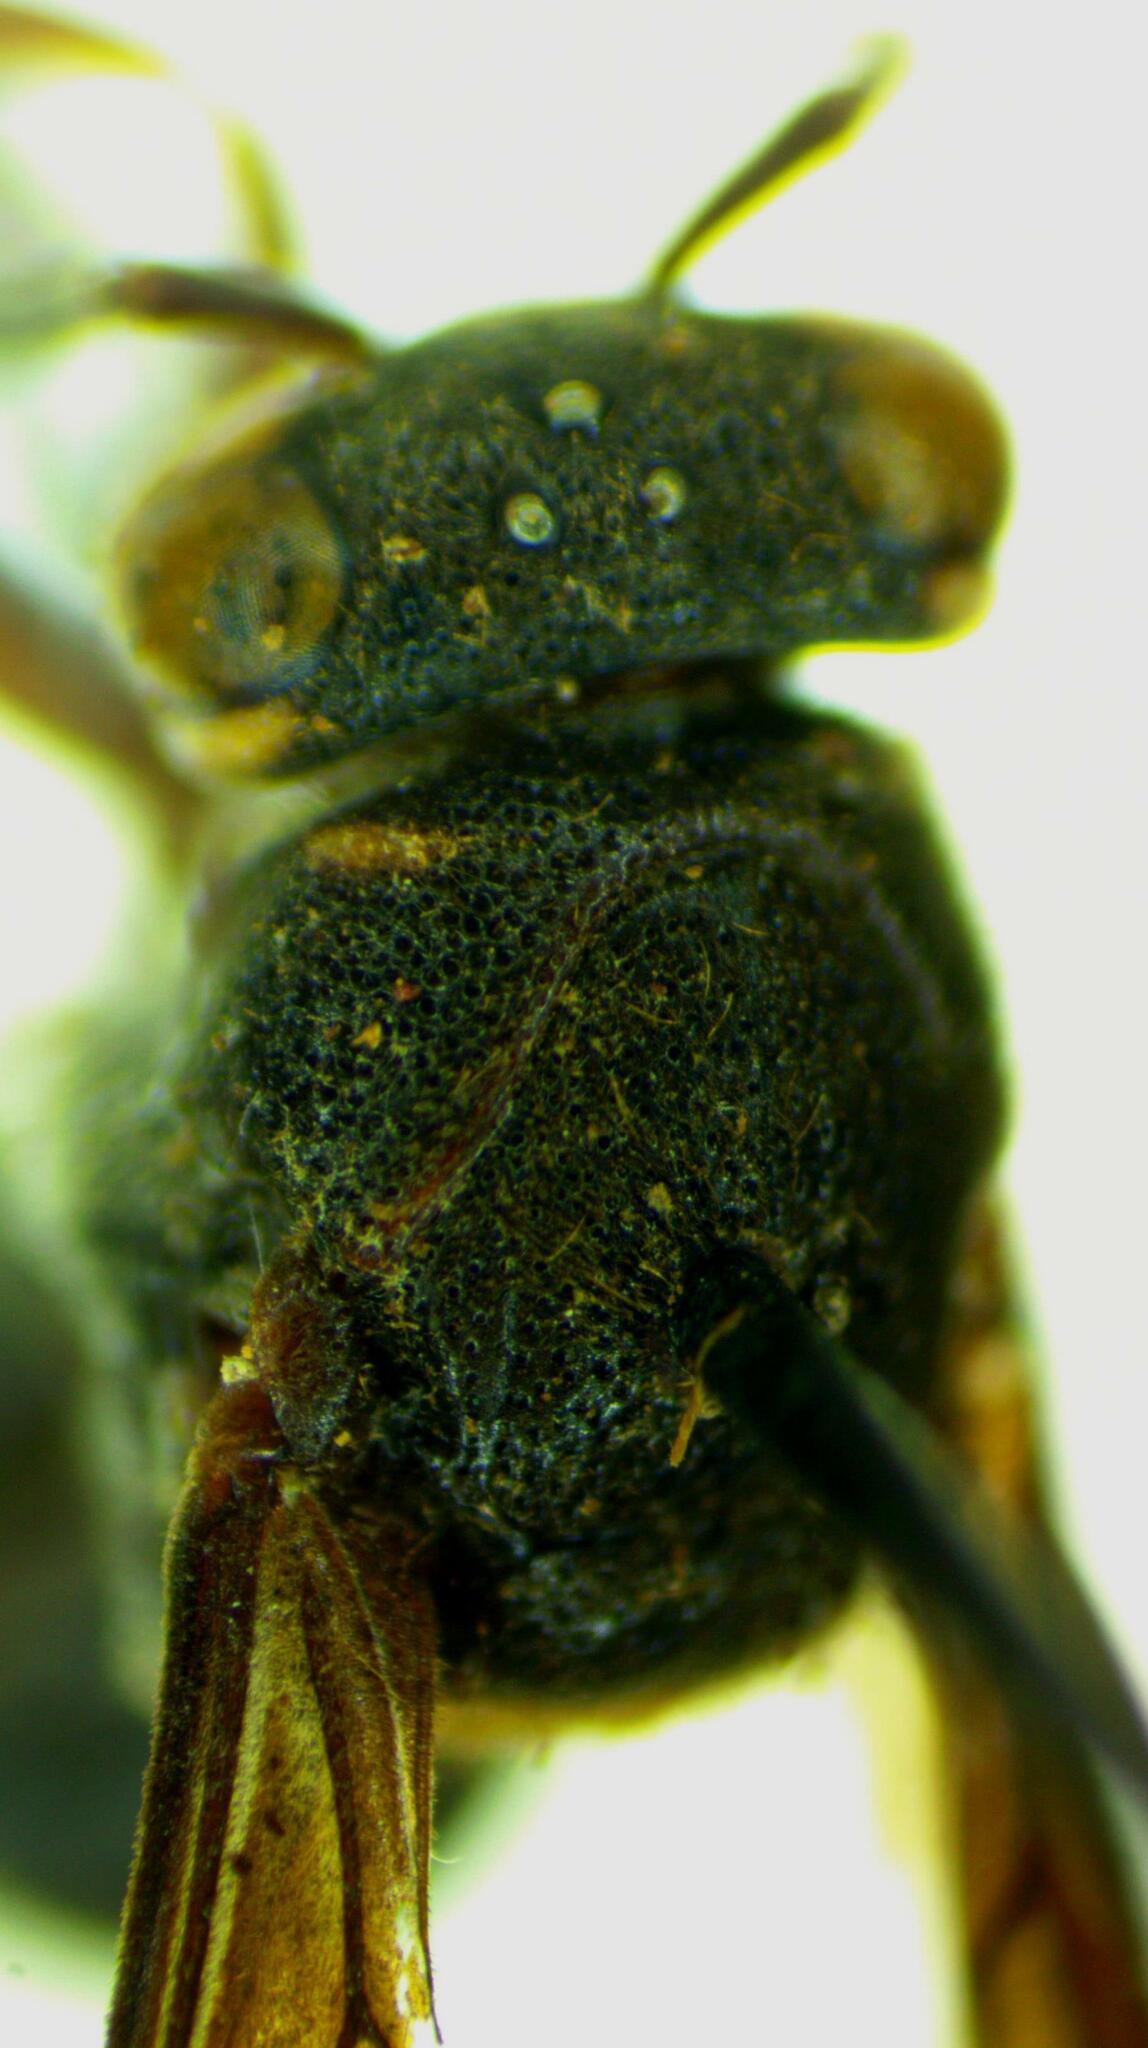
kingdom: Animalia
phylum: Arthropoda
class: Insecta
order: Hymenoptera
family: Vespidae
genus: Charterginus
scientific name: Charterginus nevermanni
